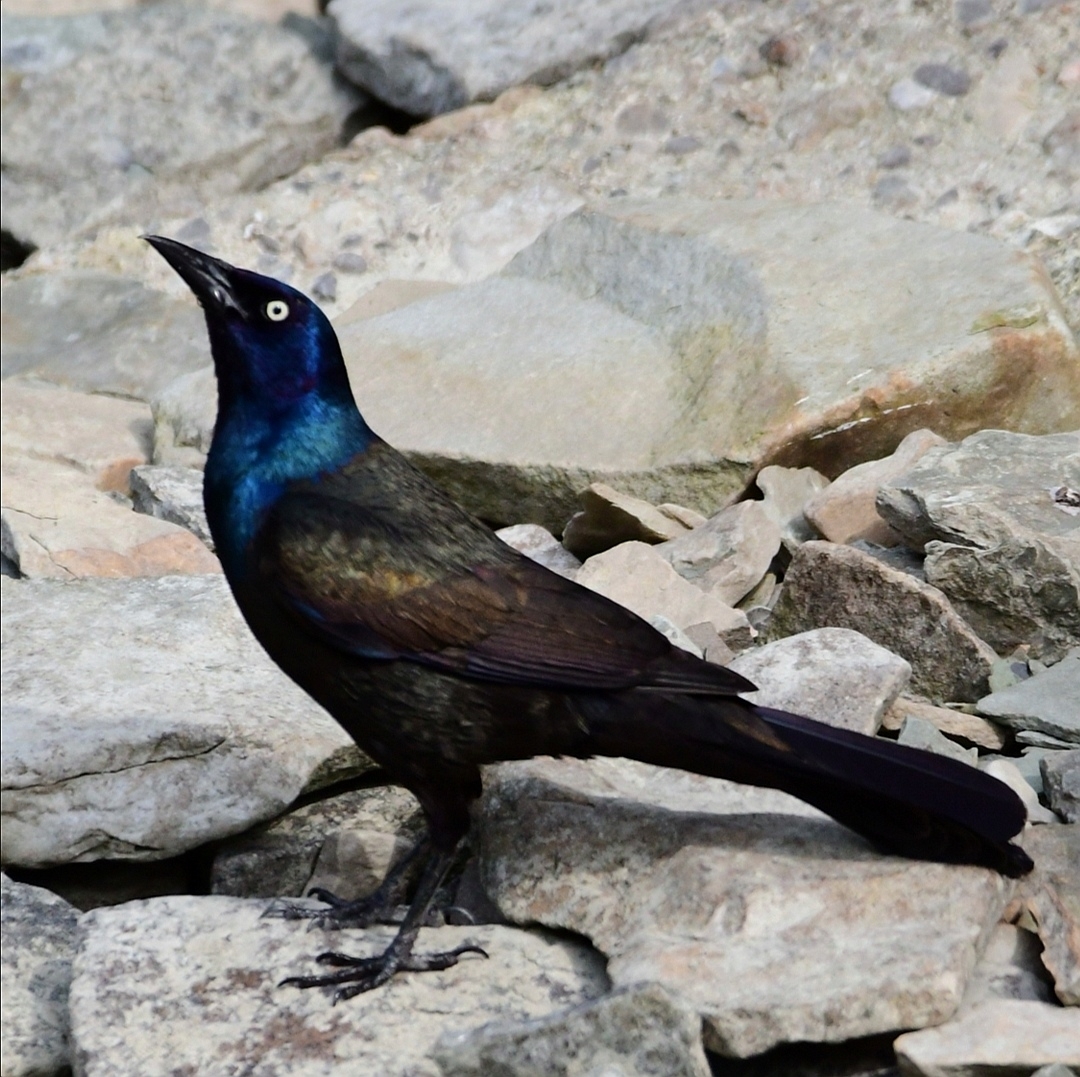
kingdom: Animalia
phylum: Chordata
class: Aves
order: Passeriformes
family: Icteridae
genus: Quiscalus
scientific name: Quiscalus quiscula
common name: Common grackle
